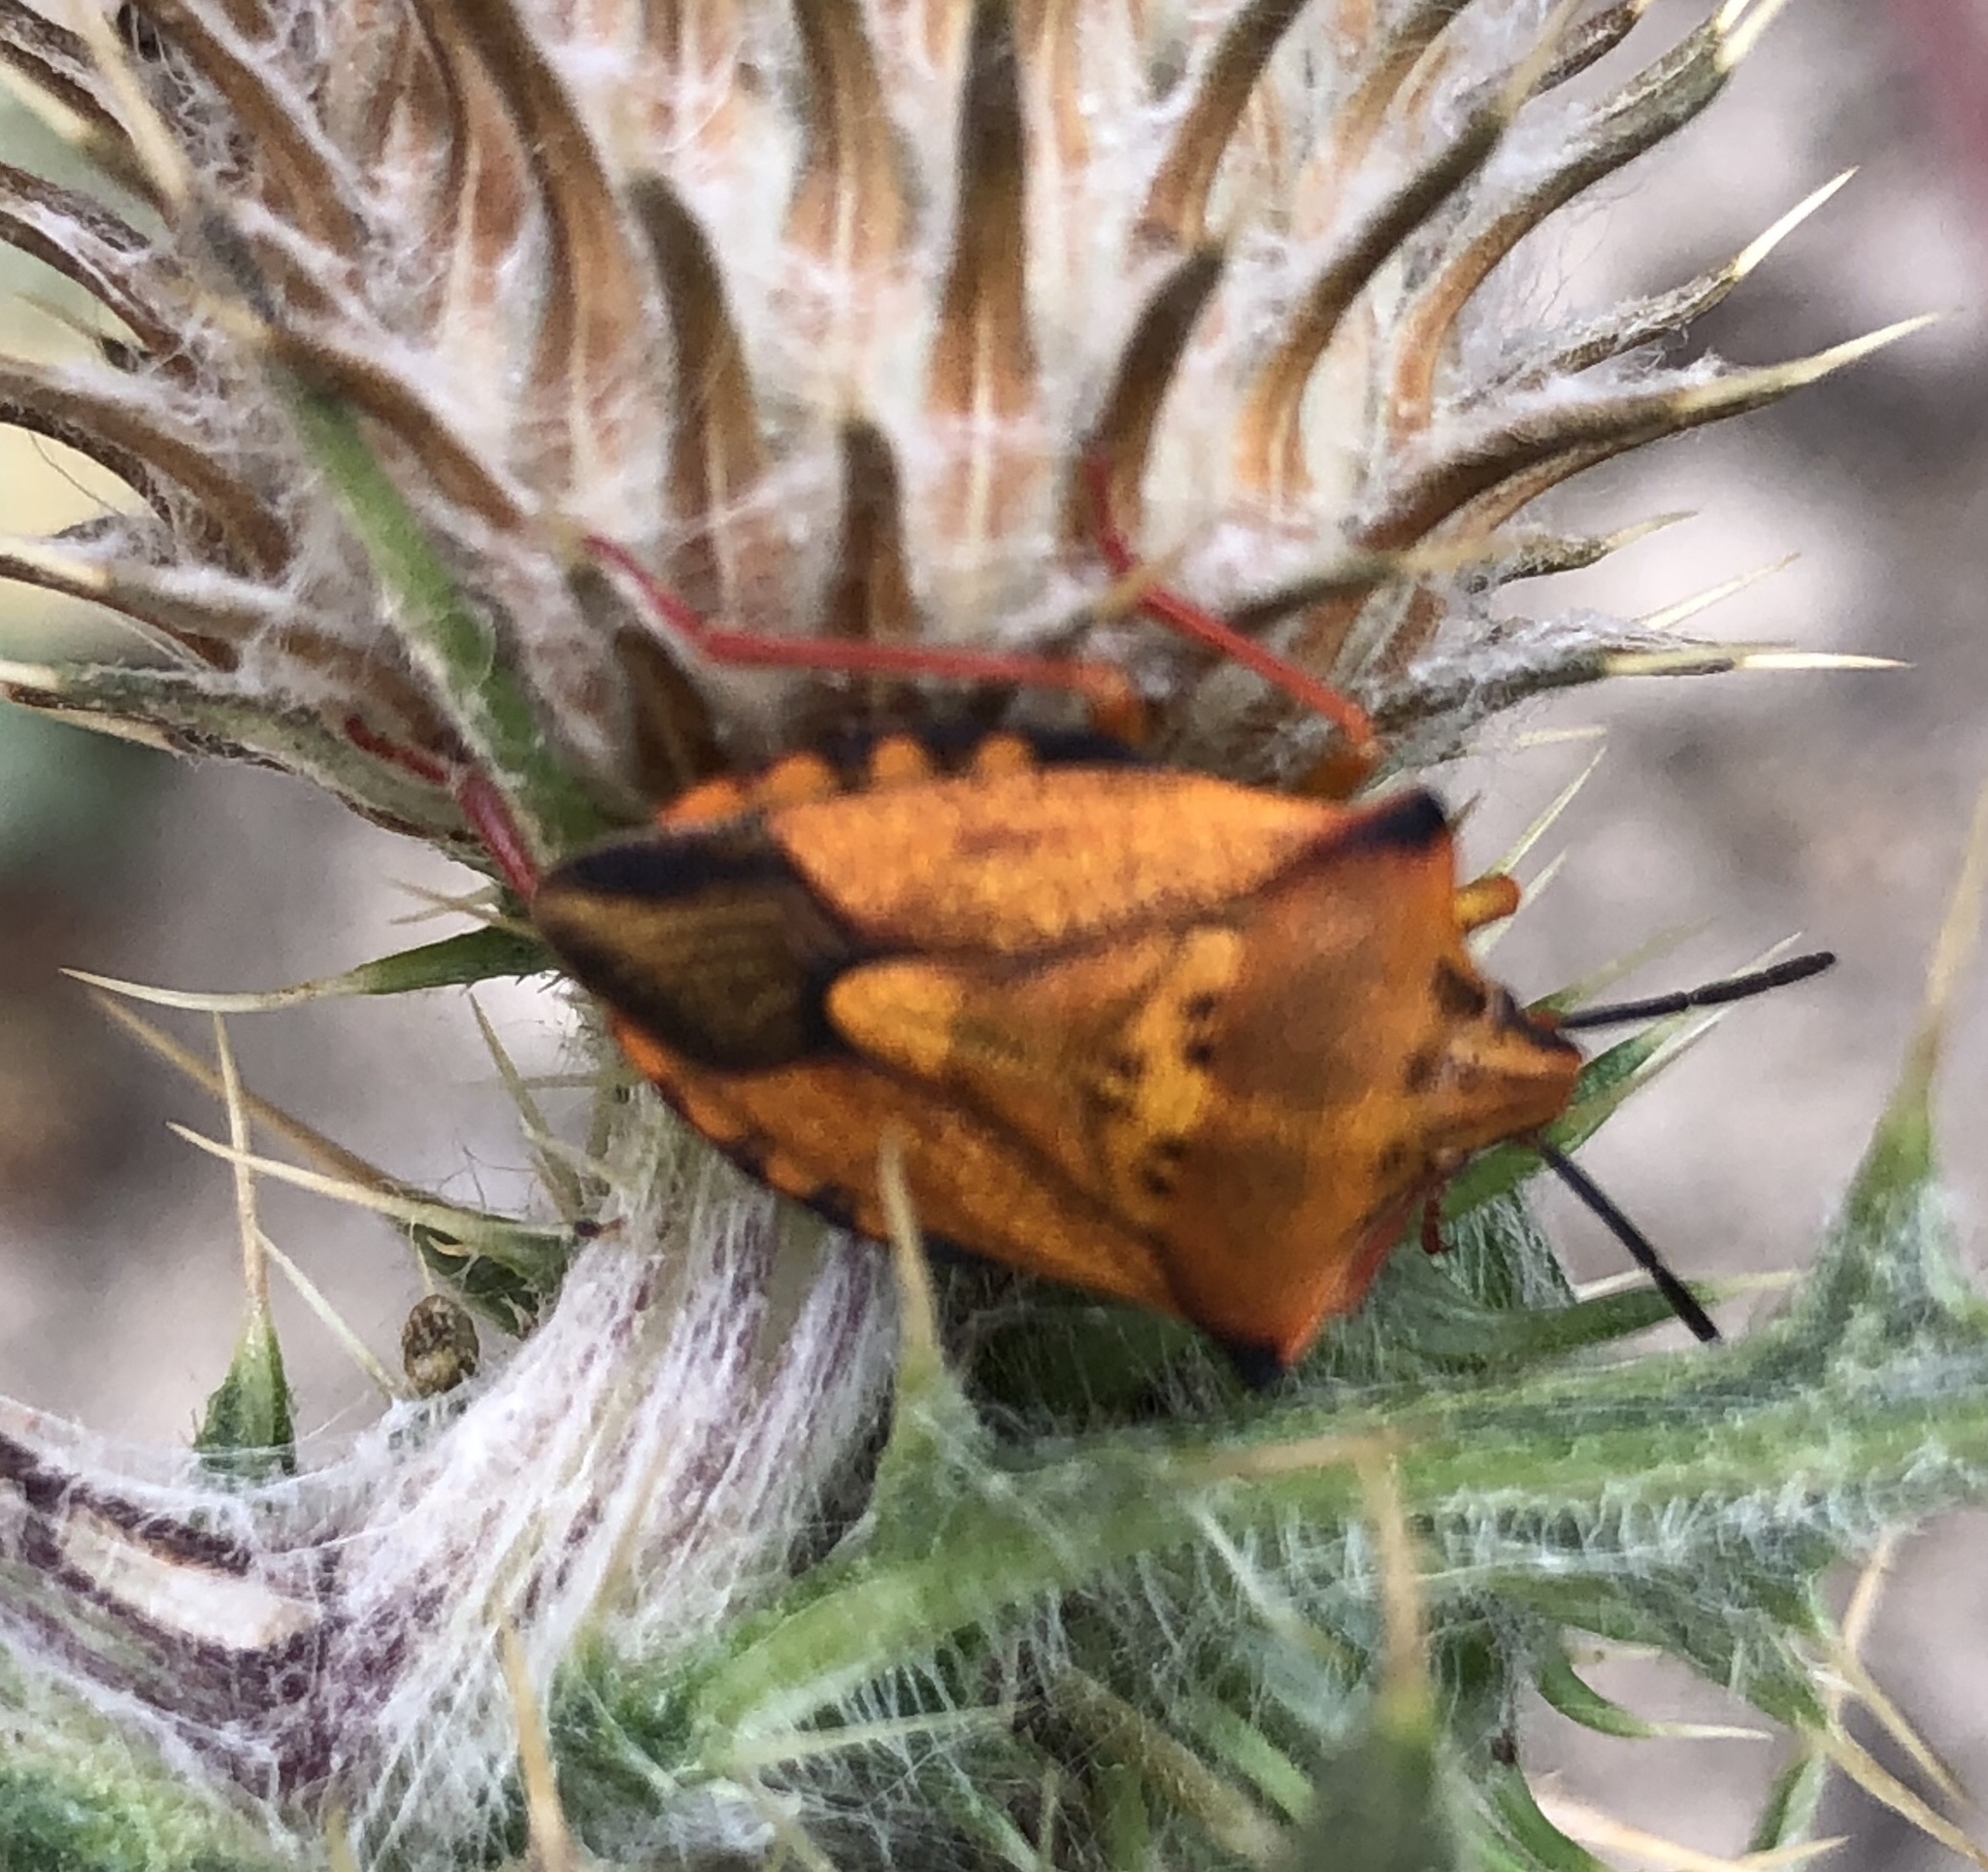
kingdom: Animalia
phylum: Arthropoda
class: Insecta
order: Hemiptera
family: Pentatomidae
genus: Carpocoris
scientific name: Carpocoris mediterraneus
